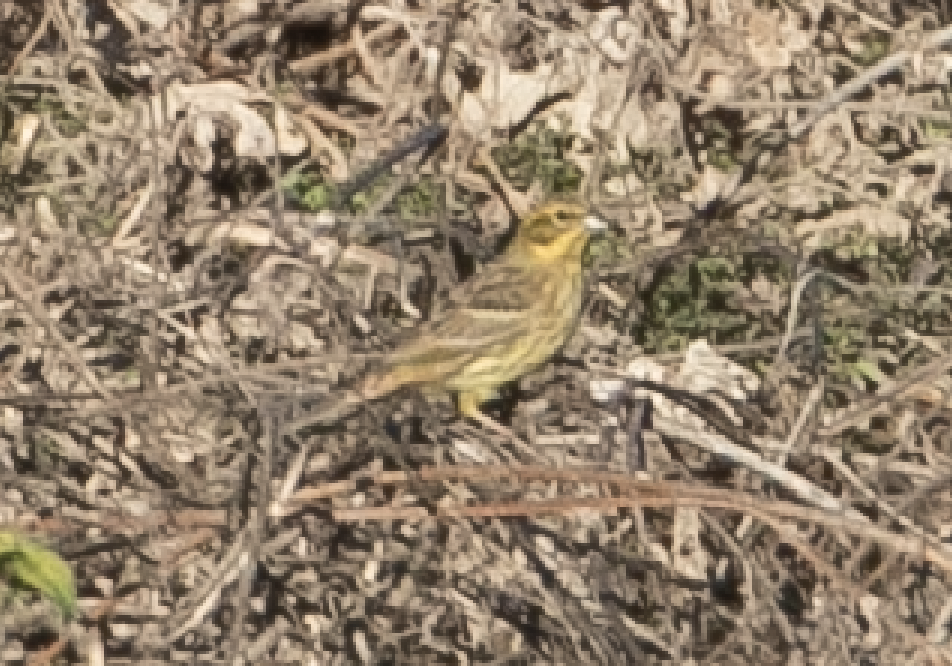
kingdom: Animalia
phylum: Chordata
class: Aves
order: Passeriformes
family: Emberizidae
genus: Emberiza
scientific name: Emberiza citrinella
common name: Yellowhammer
